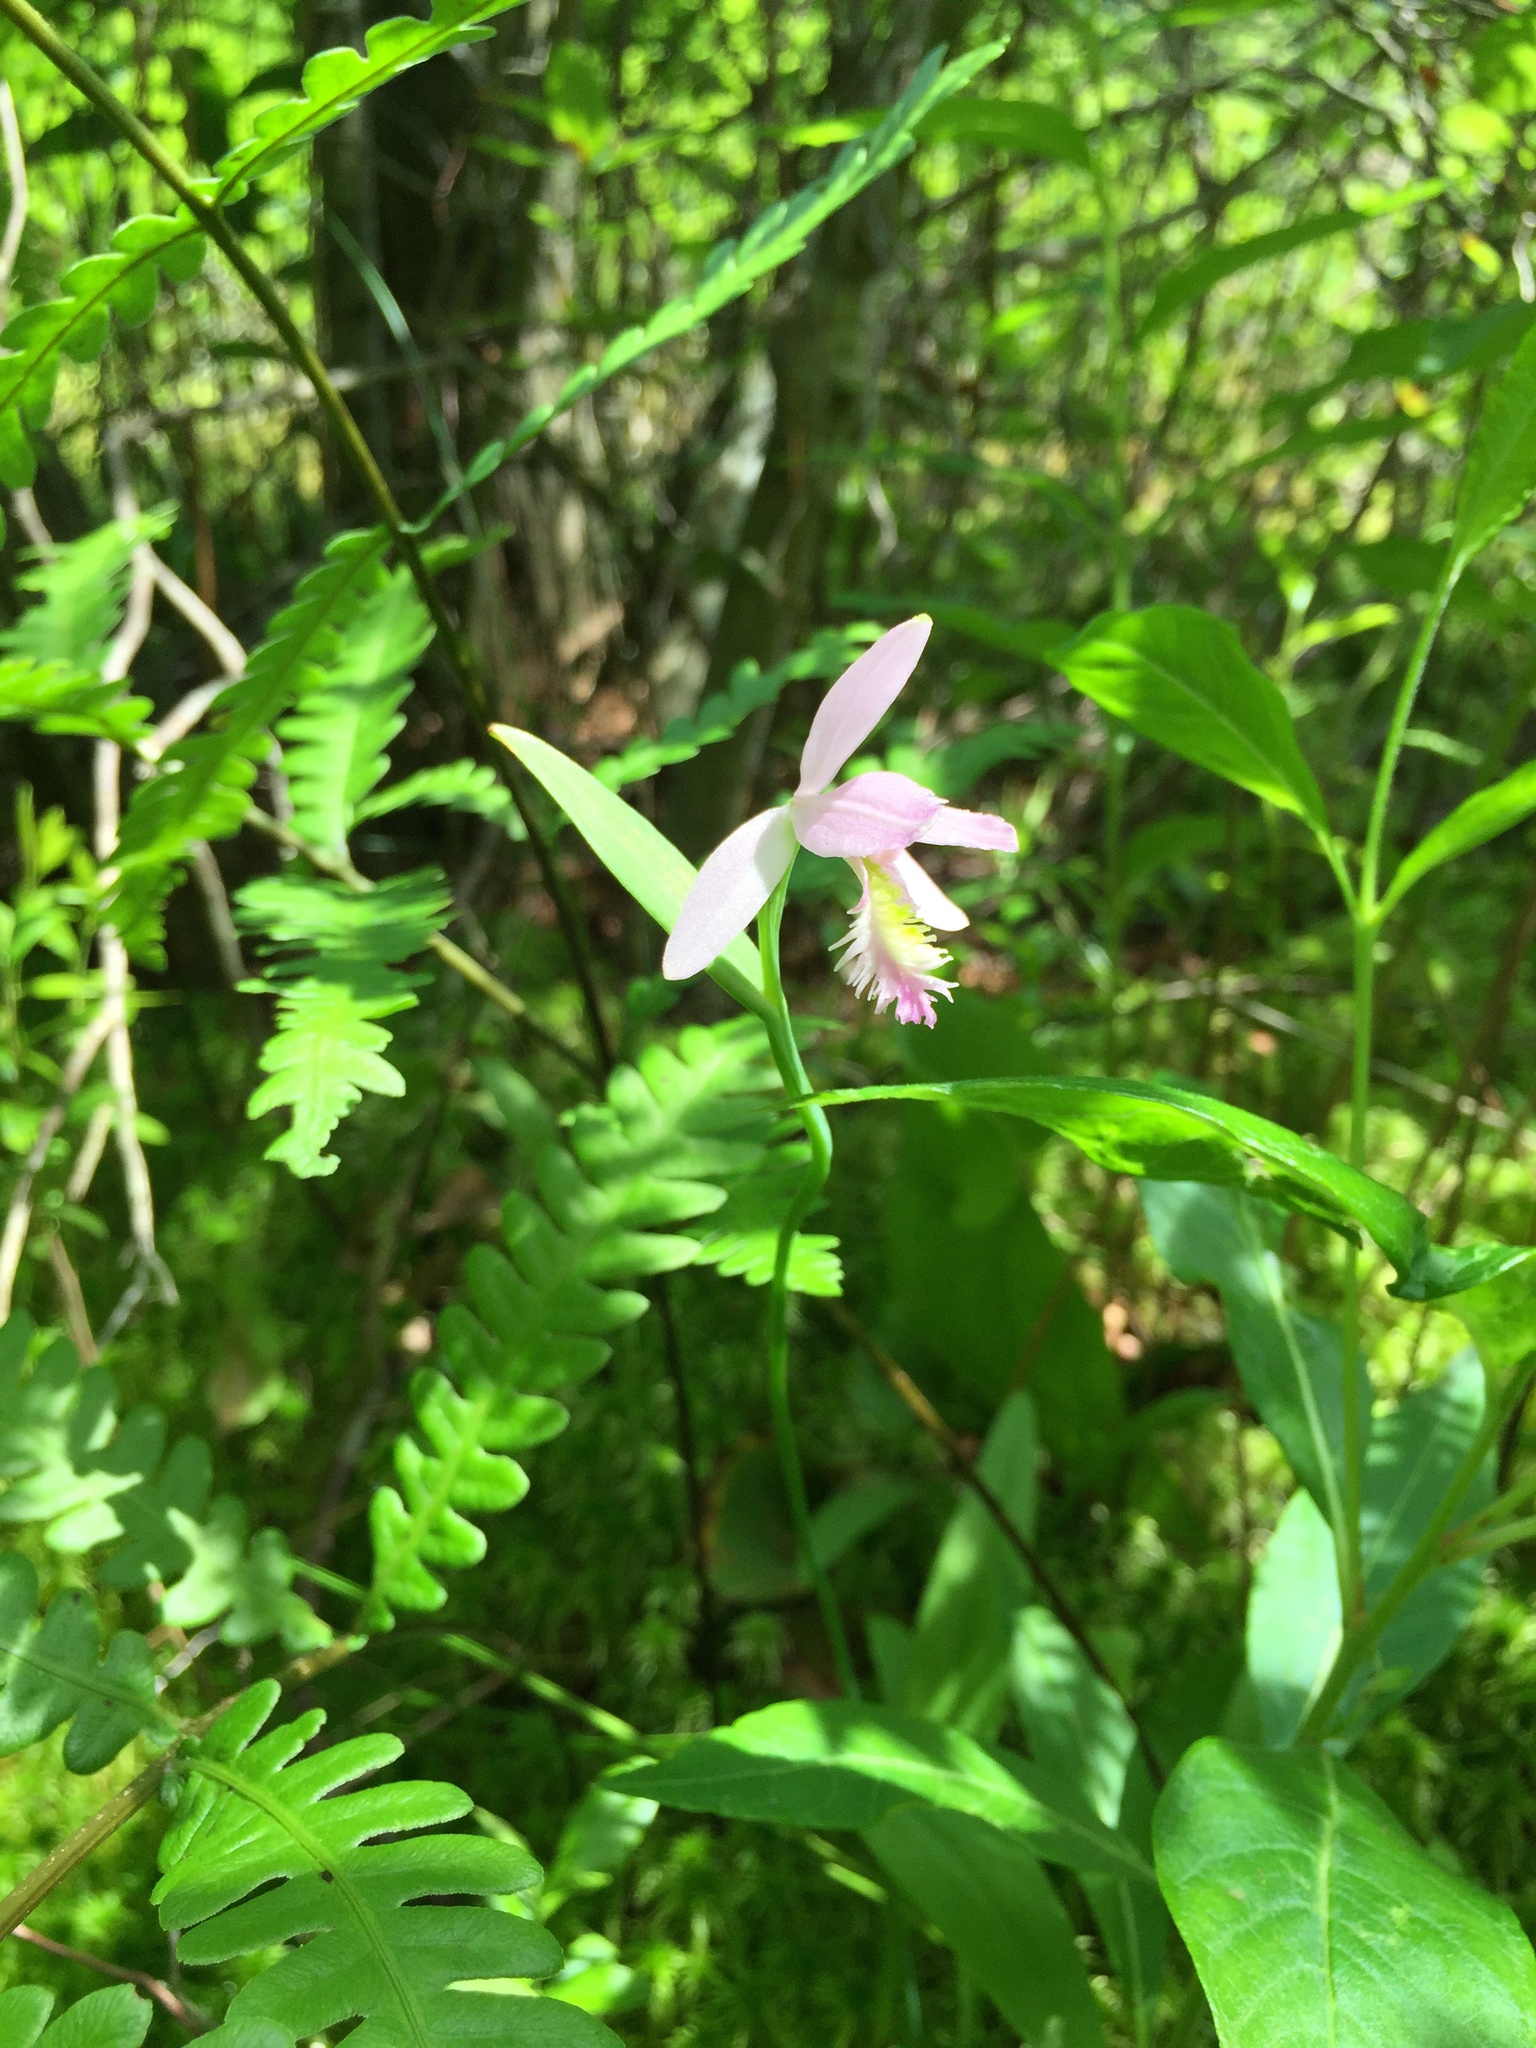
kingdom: Plantae
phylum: Tracheophyta
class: Liliopsida
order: Asparagales
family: Orchidaceae
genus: Pogonia
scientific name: Pogonia ophioglossoides
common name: Rose pogonia
